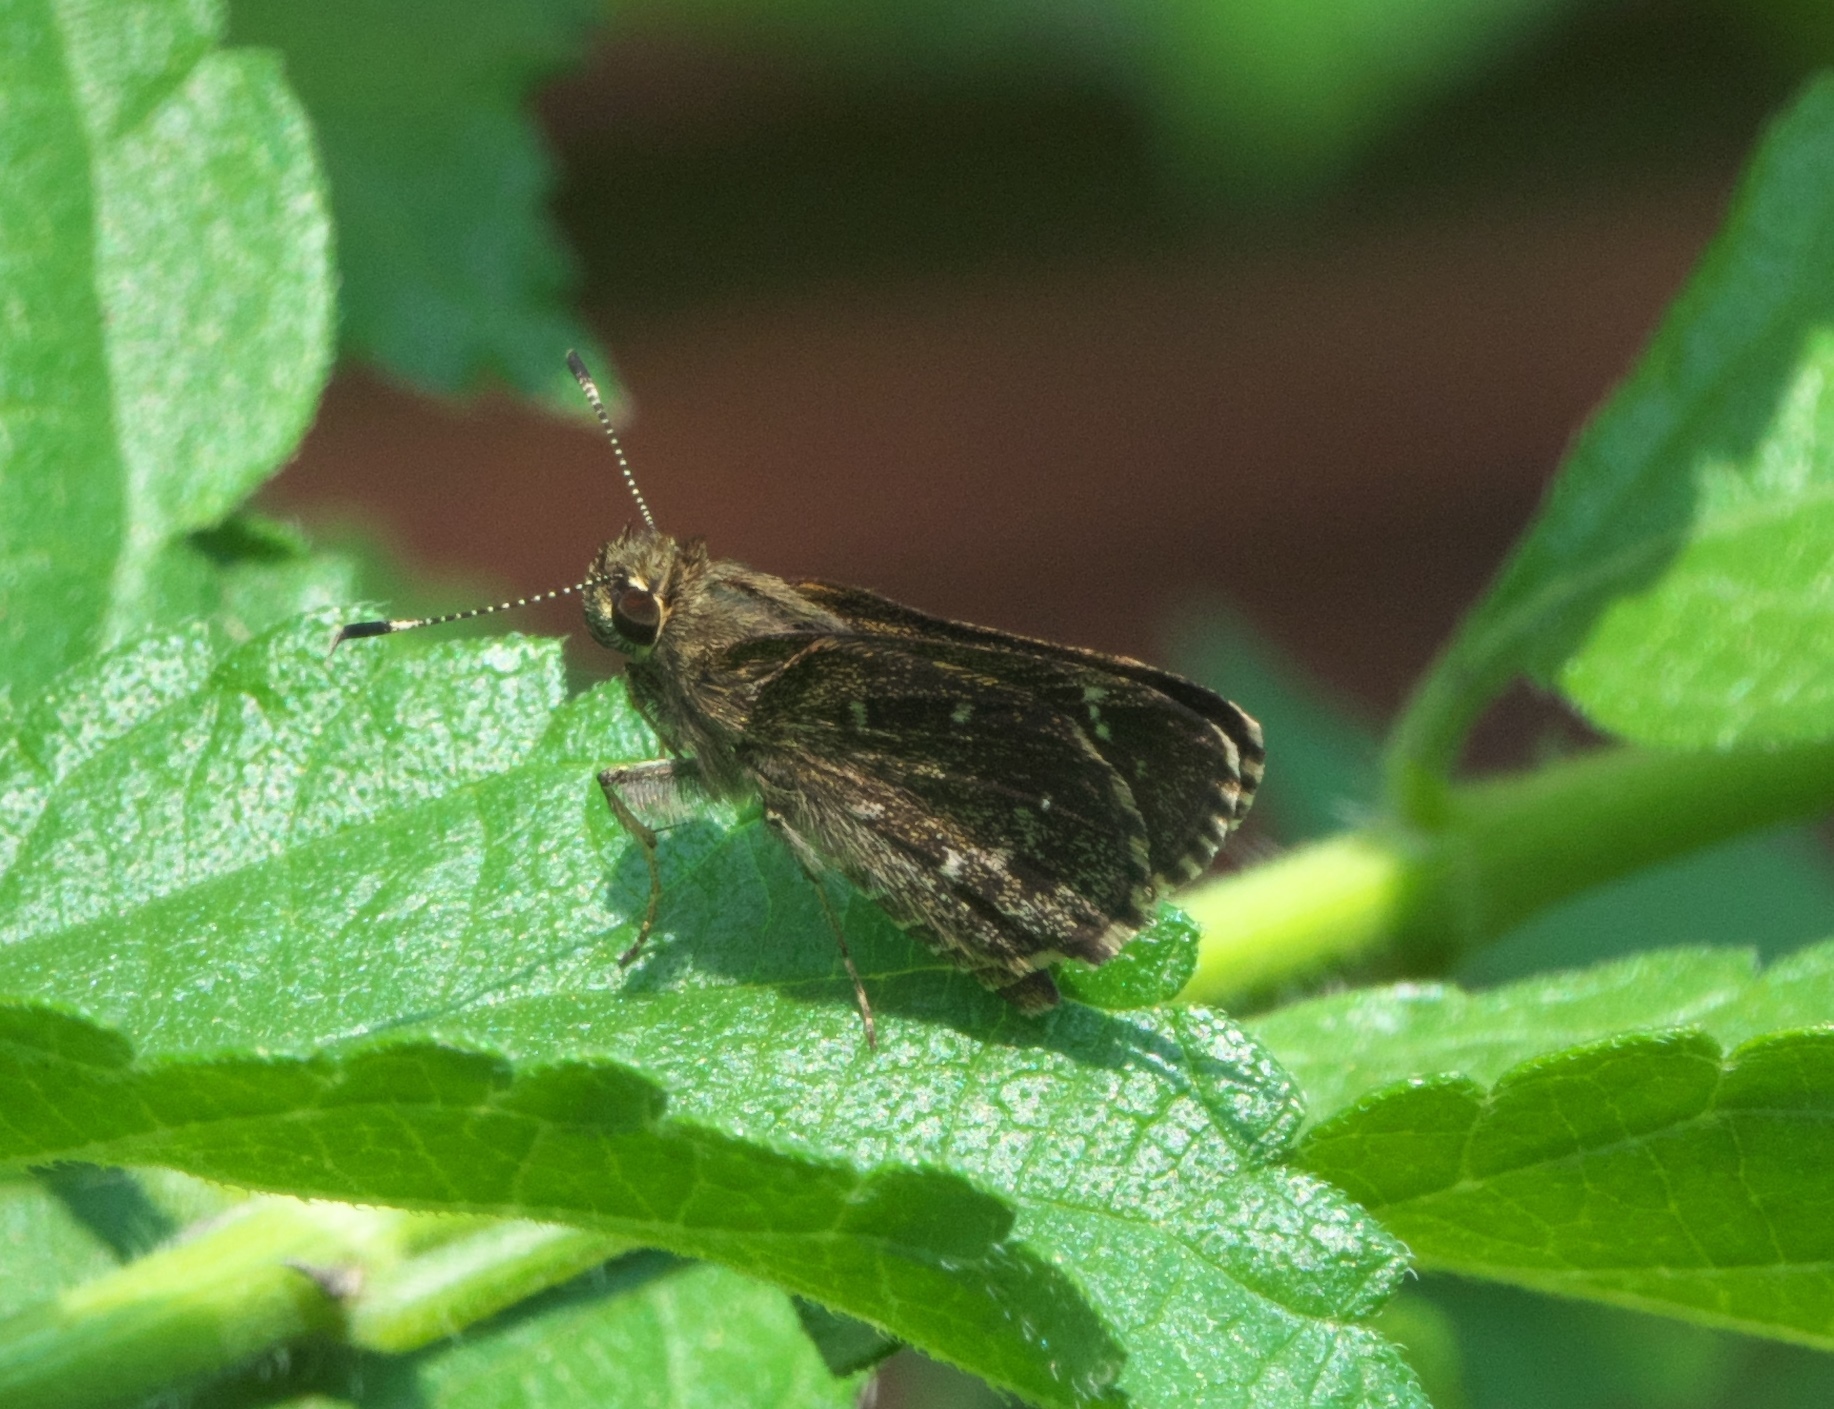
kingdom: Animalia
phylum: Arthropoda
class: Insecta
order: Lepidoptera
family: Hesperiidae
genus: Mastor
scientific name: Mastor celia
